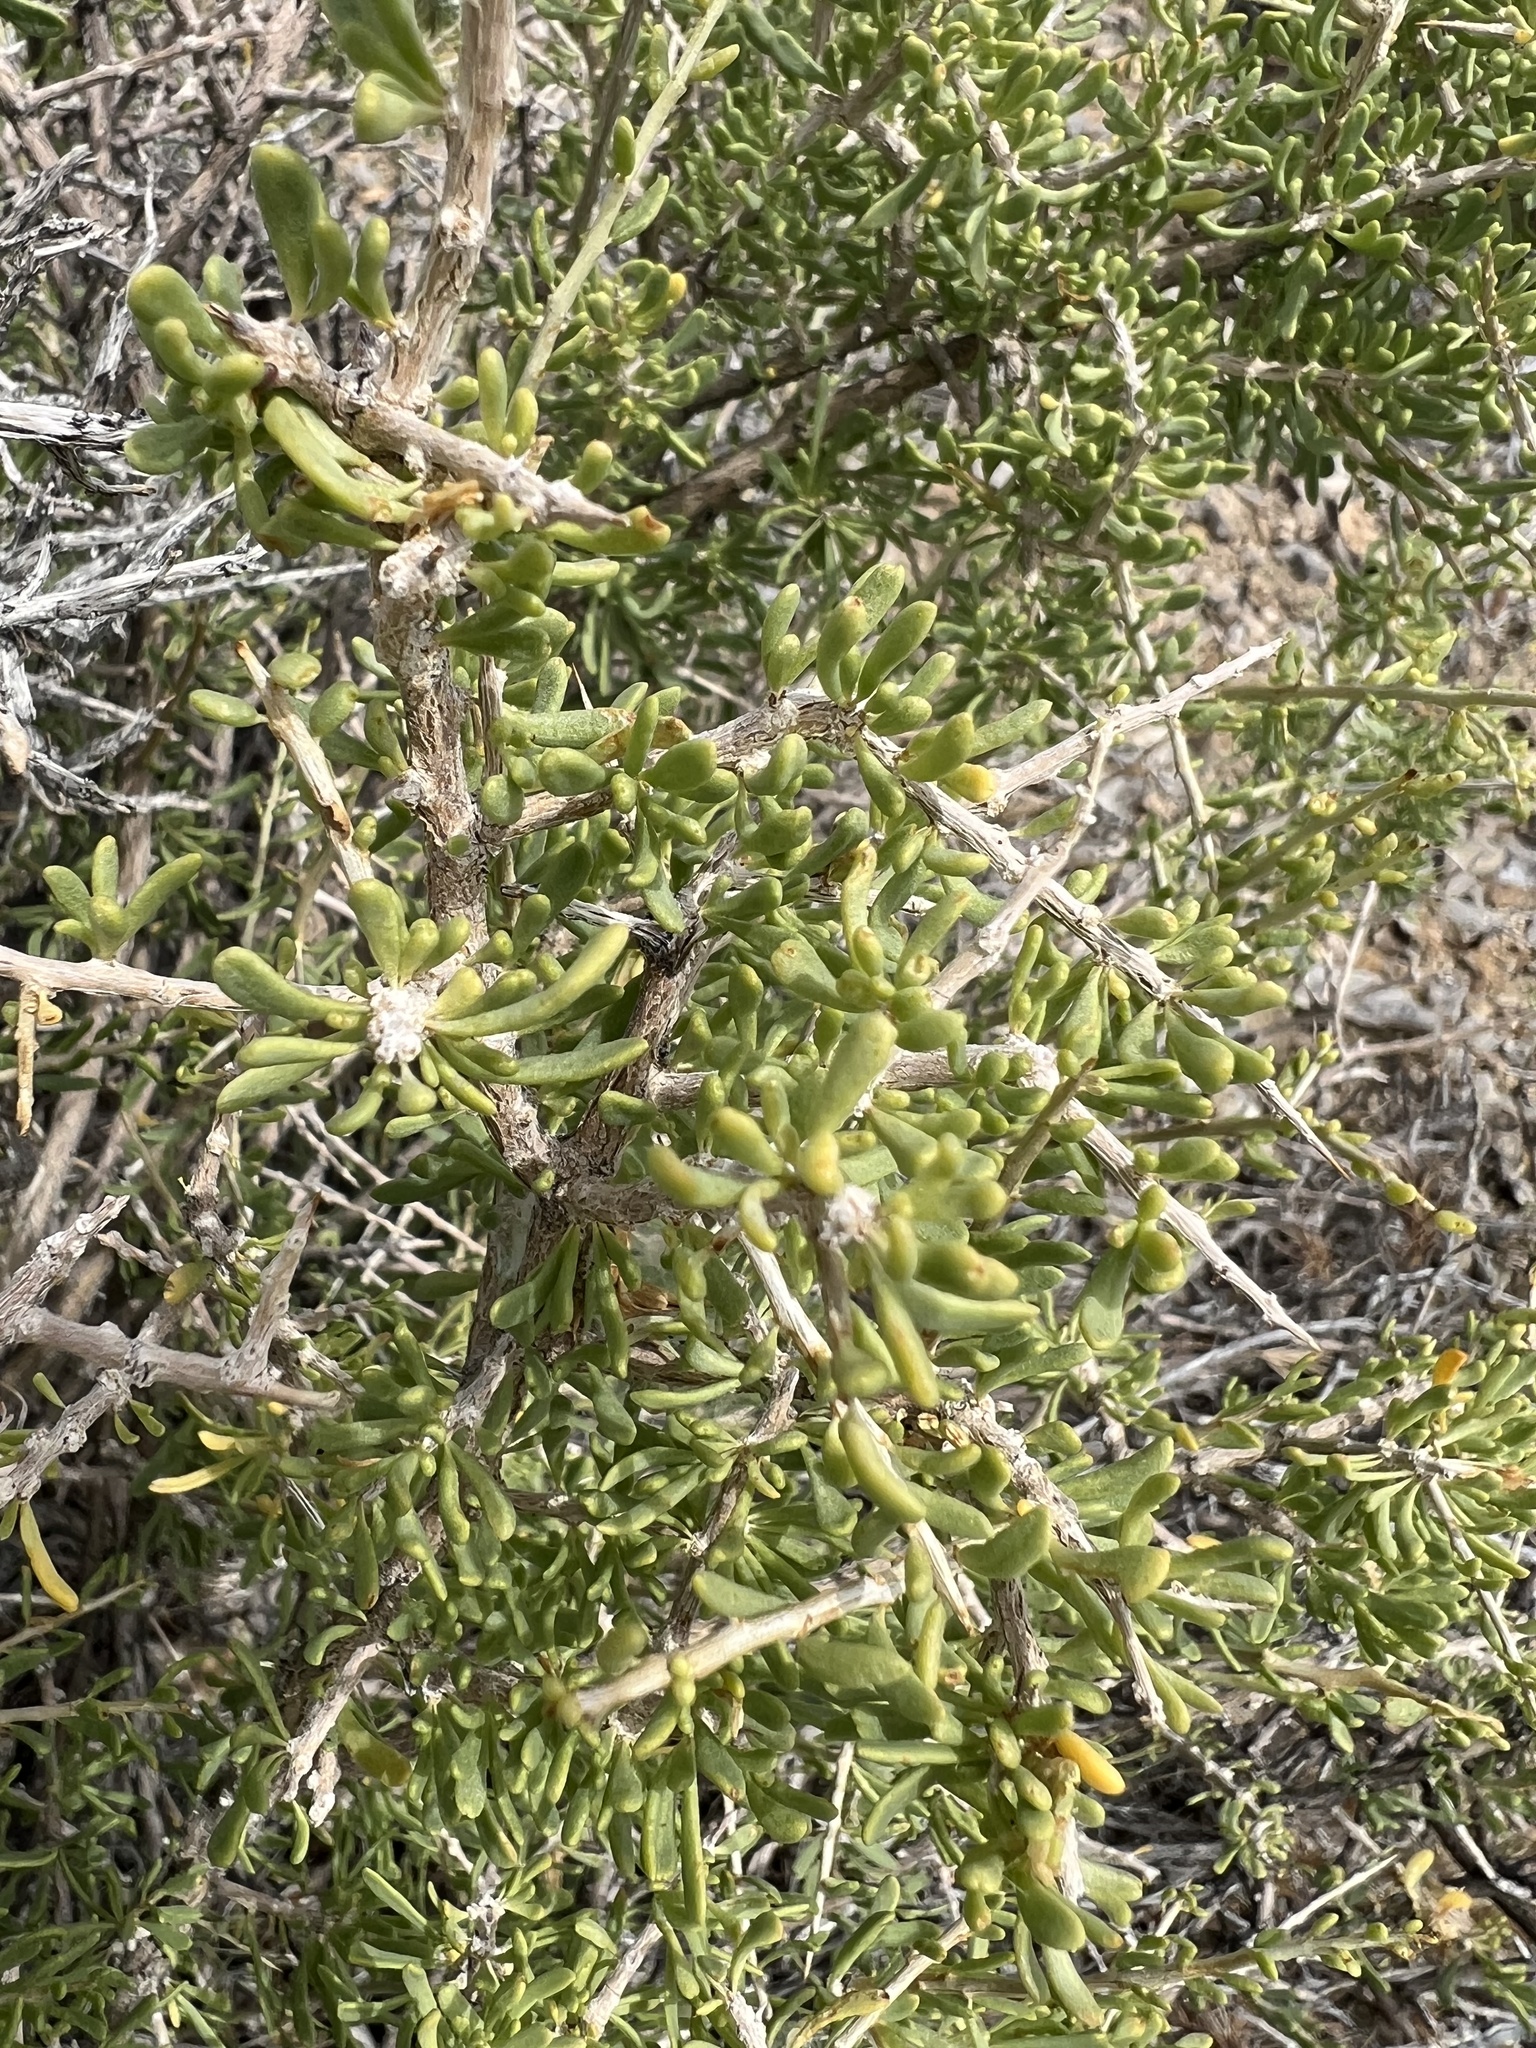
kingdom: Plantae
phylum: Tracheophyta
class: Magnoliopsida
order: Solanales
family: Solanaceae
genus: Lycium
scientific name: Lycium andersonii
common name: Water-jacket
